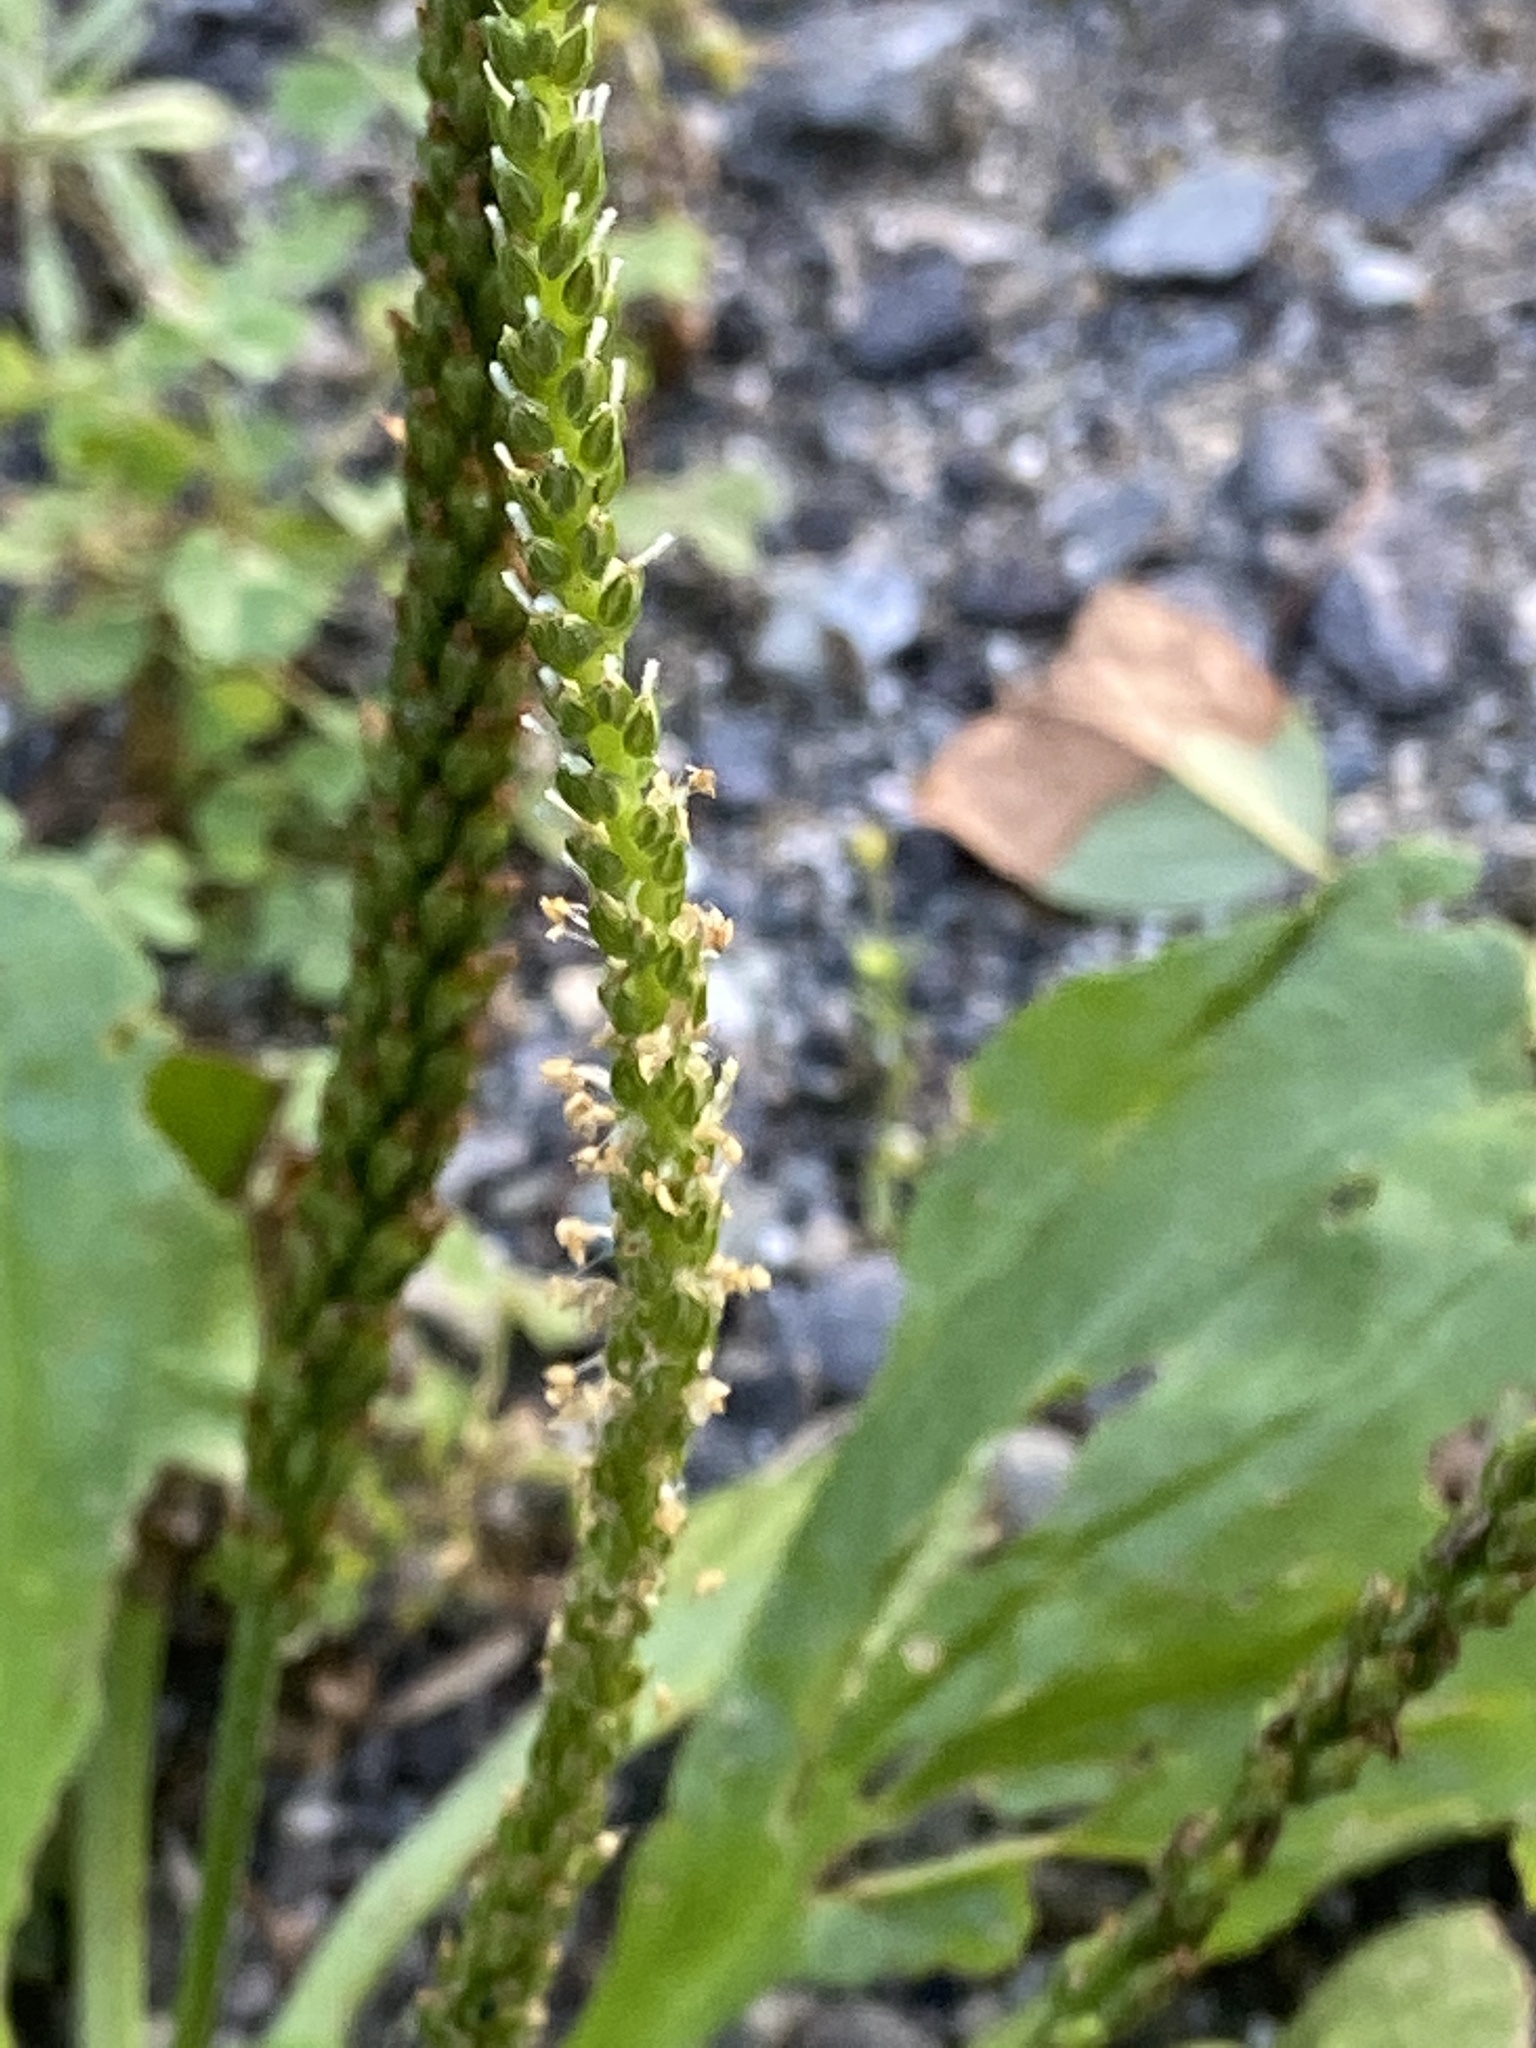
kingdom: Plantae
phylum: Tracheophyta
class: Magnoliopsida
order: Lamiales
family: Plantaginaceae
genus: Plantago
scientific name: Plantago rugelii
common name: American plantain
